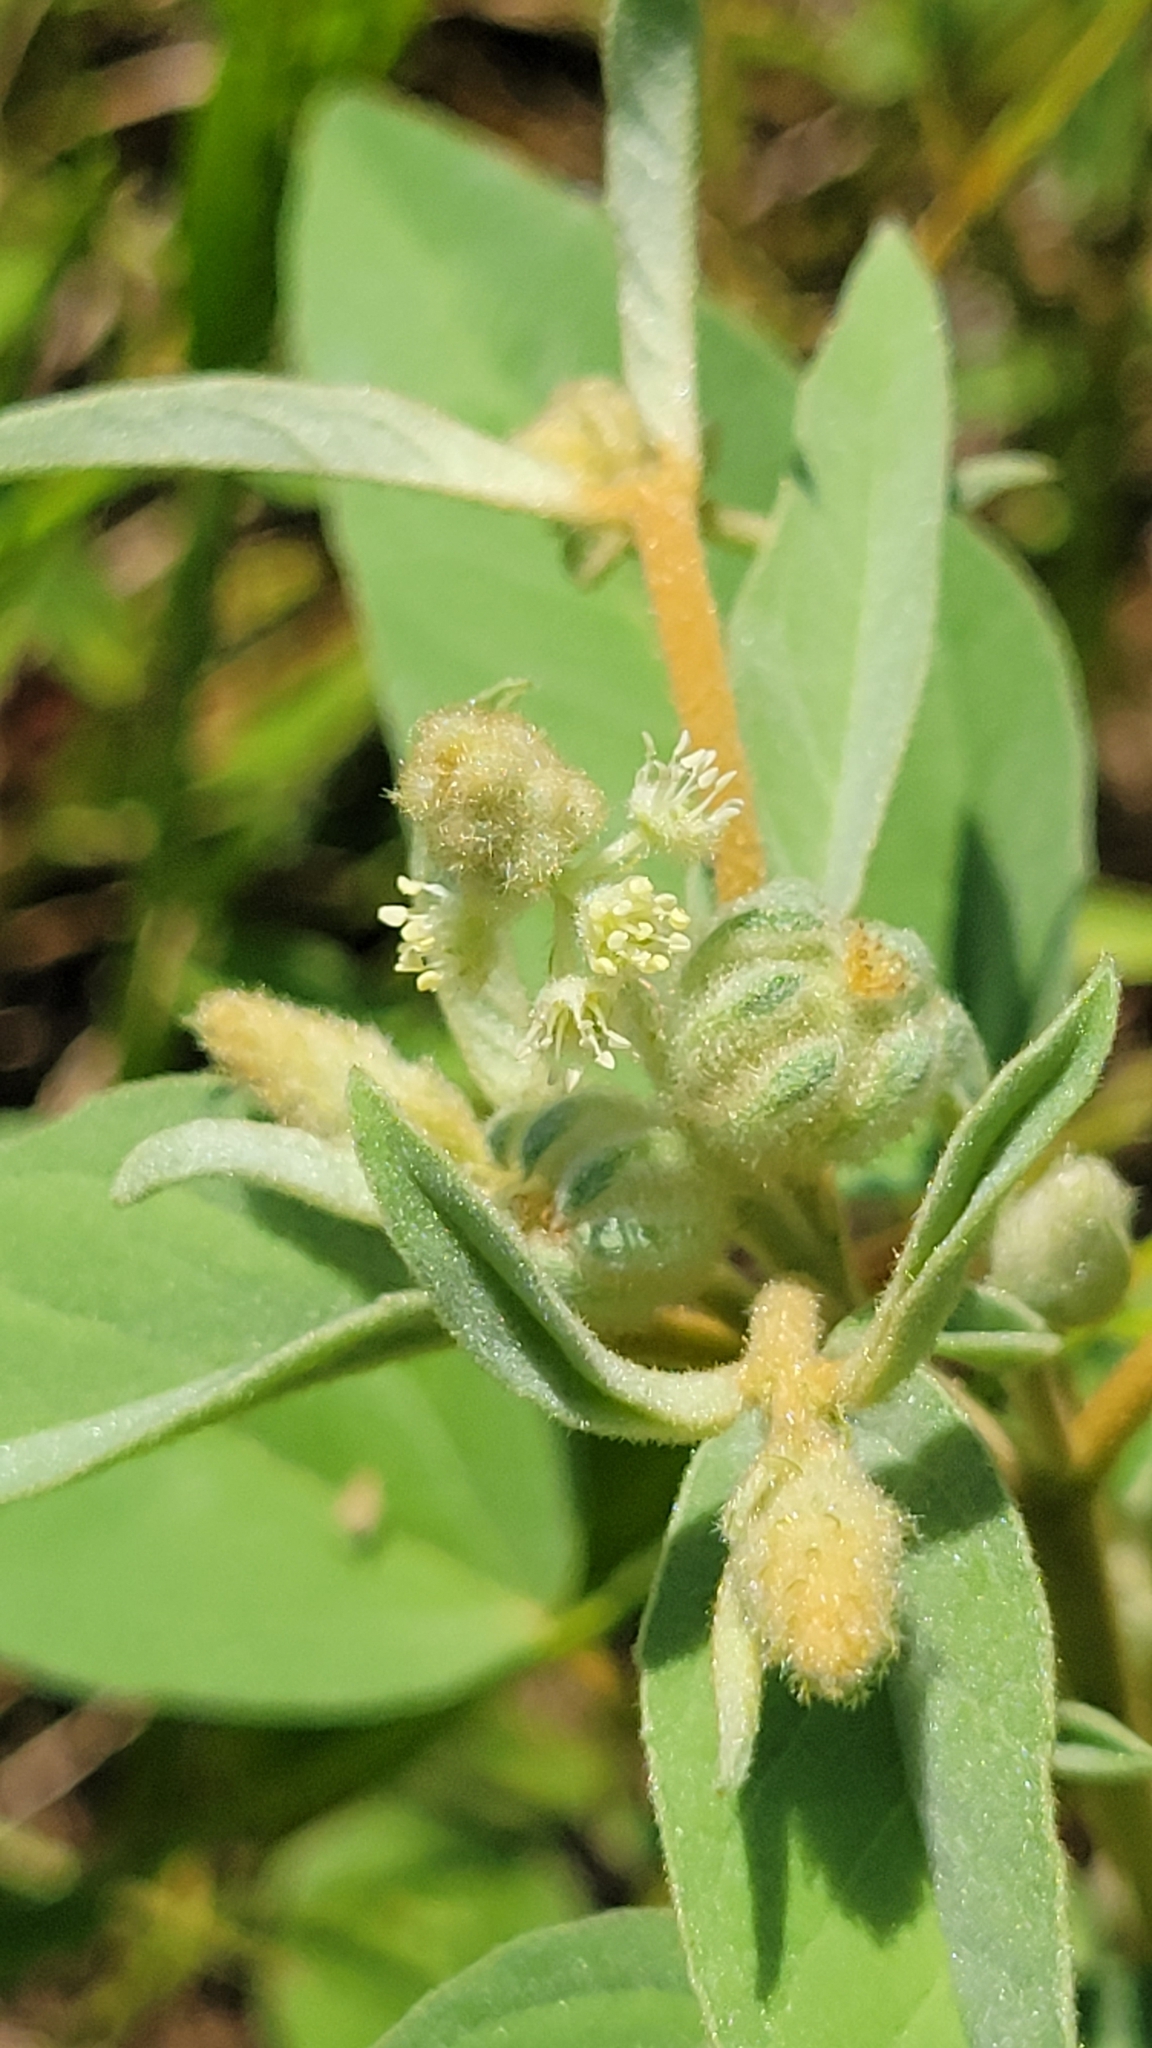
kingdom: Plantae
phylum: Tracheophyta
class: Magnoliopsida
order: Malpighiales
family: Euphorbiaceae
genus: Croton
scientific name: Croton lindheimeri
